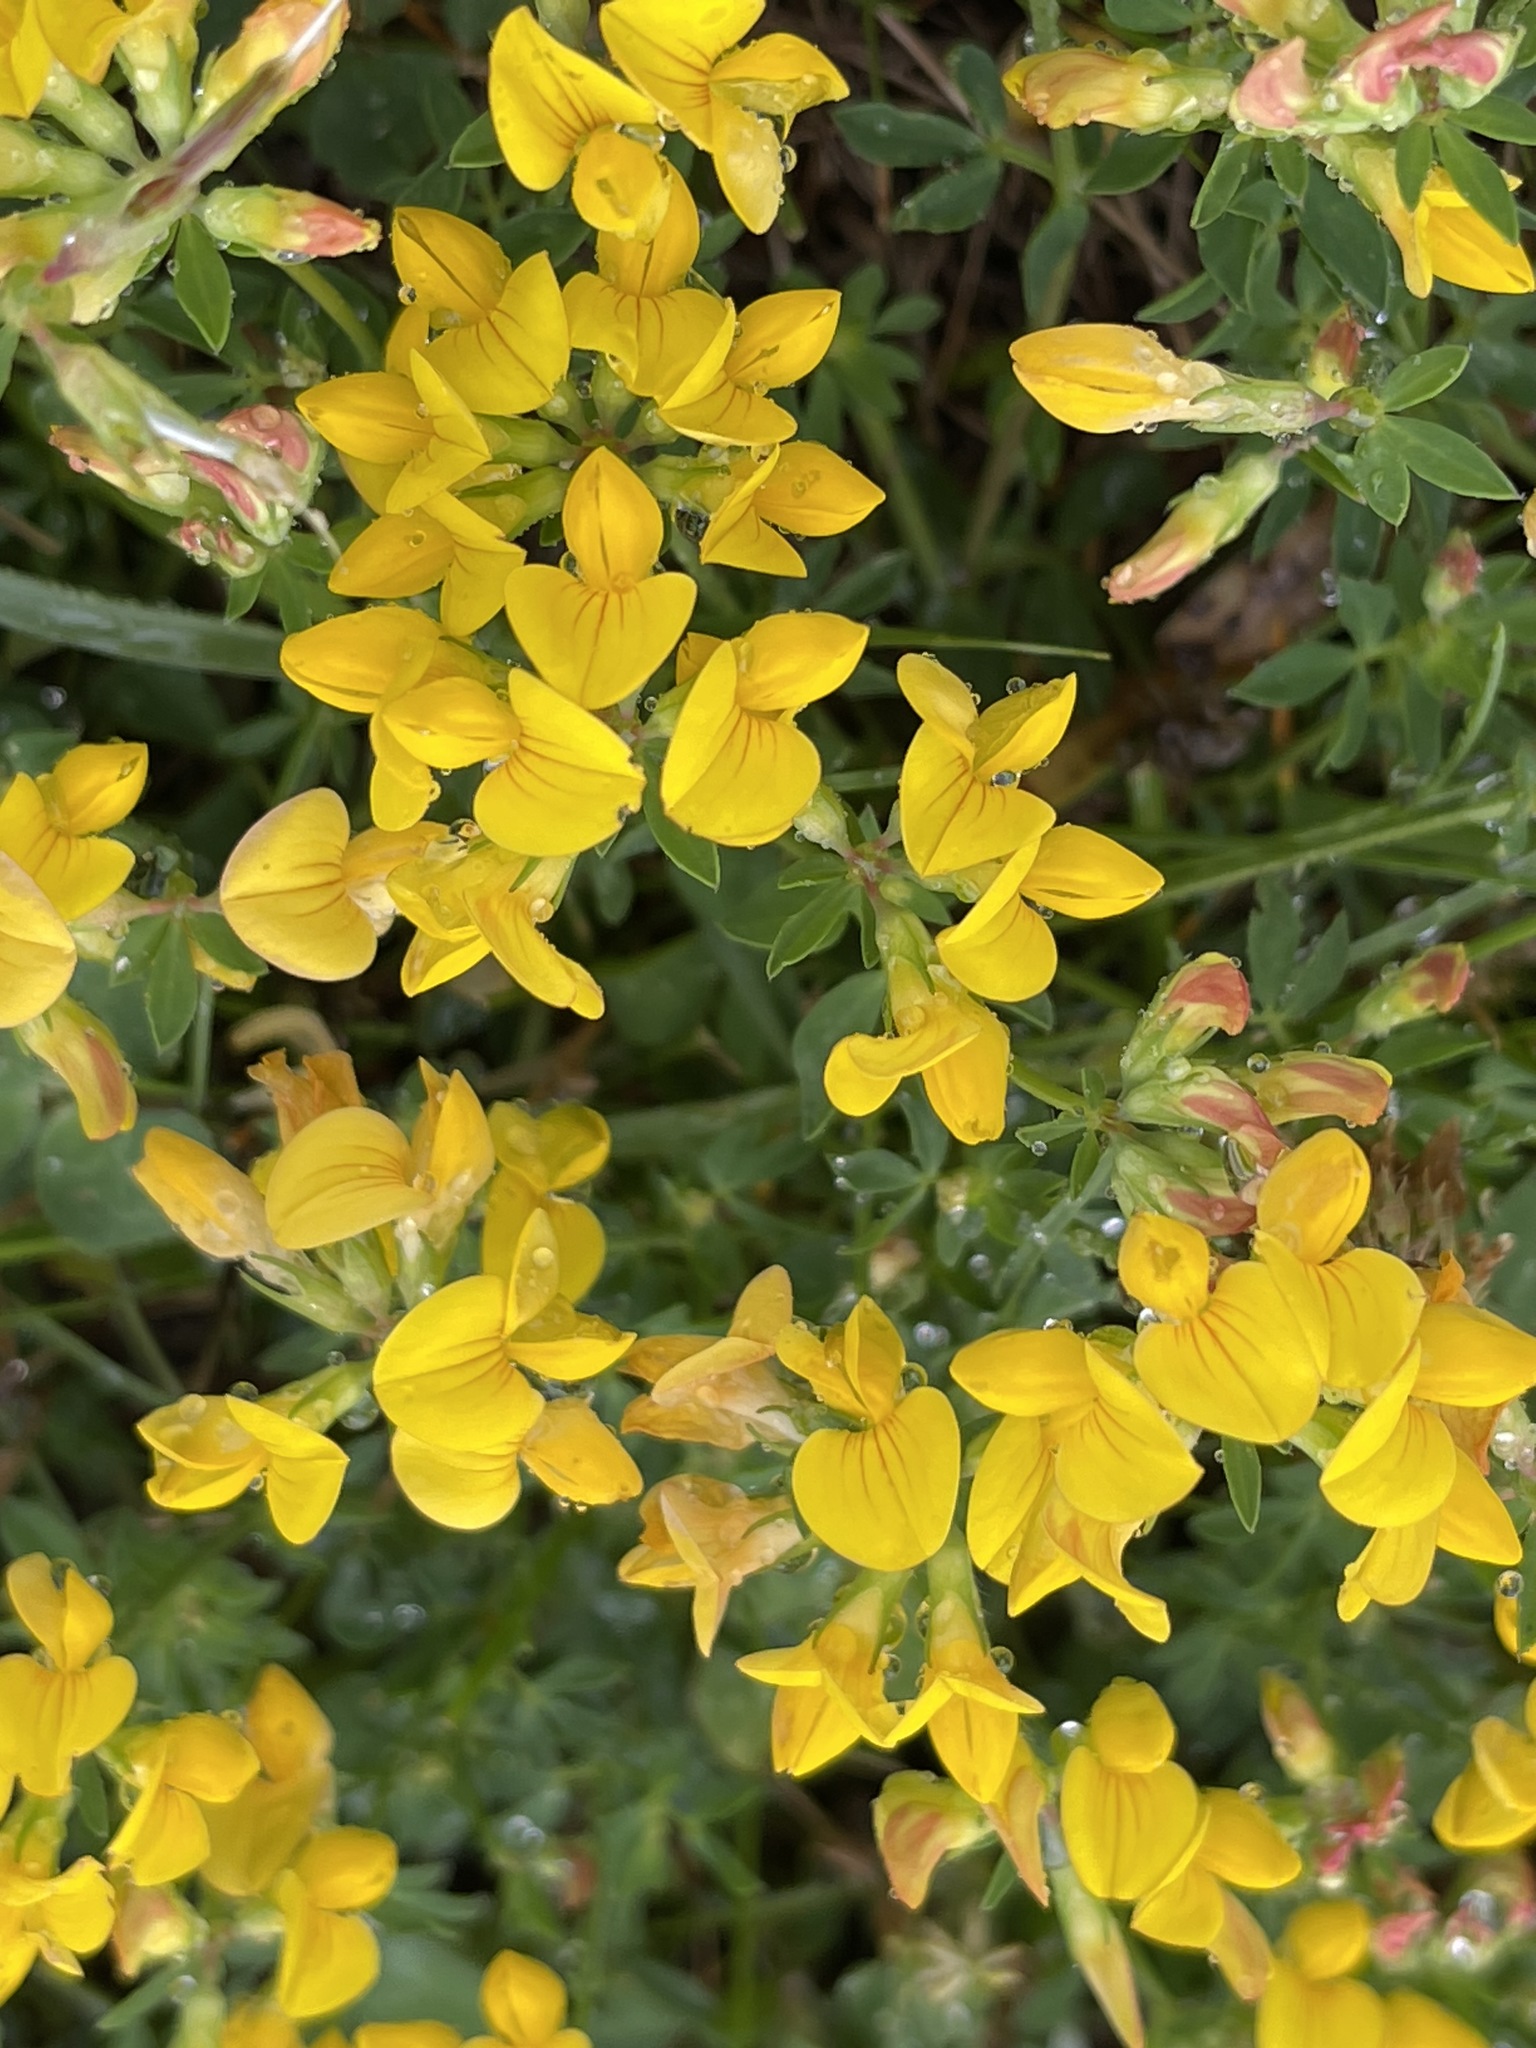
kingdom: Plantae
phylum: Tracheophyta
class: Magnoliopsida
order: Fabales
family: Fabaceae
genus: Lotus
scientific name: Lotus corniculatus
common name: Common bird's-foot-trefoil
